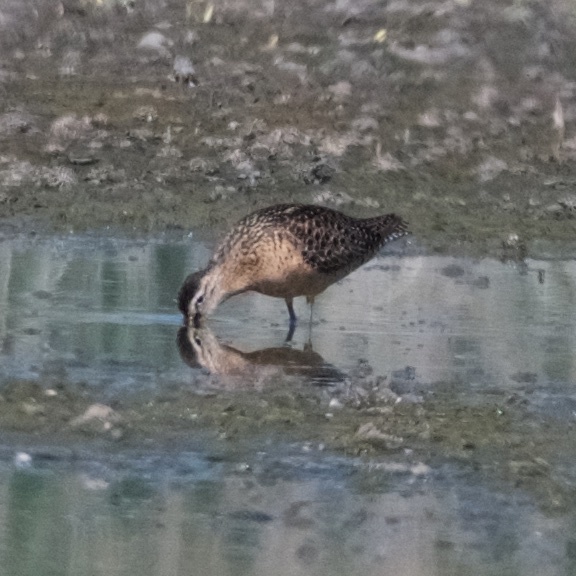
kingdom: Animalia
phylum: Chordata
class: Aves
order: Charadriiformes
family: Scolopacidae
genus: Limnodromus
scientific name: Limnodromus scolopaceus
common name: Long-billed dowitcher
